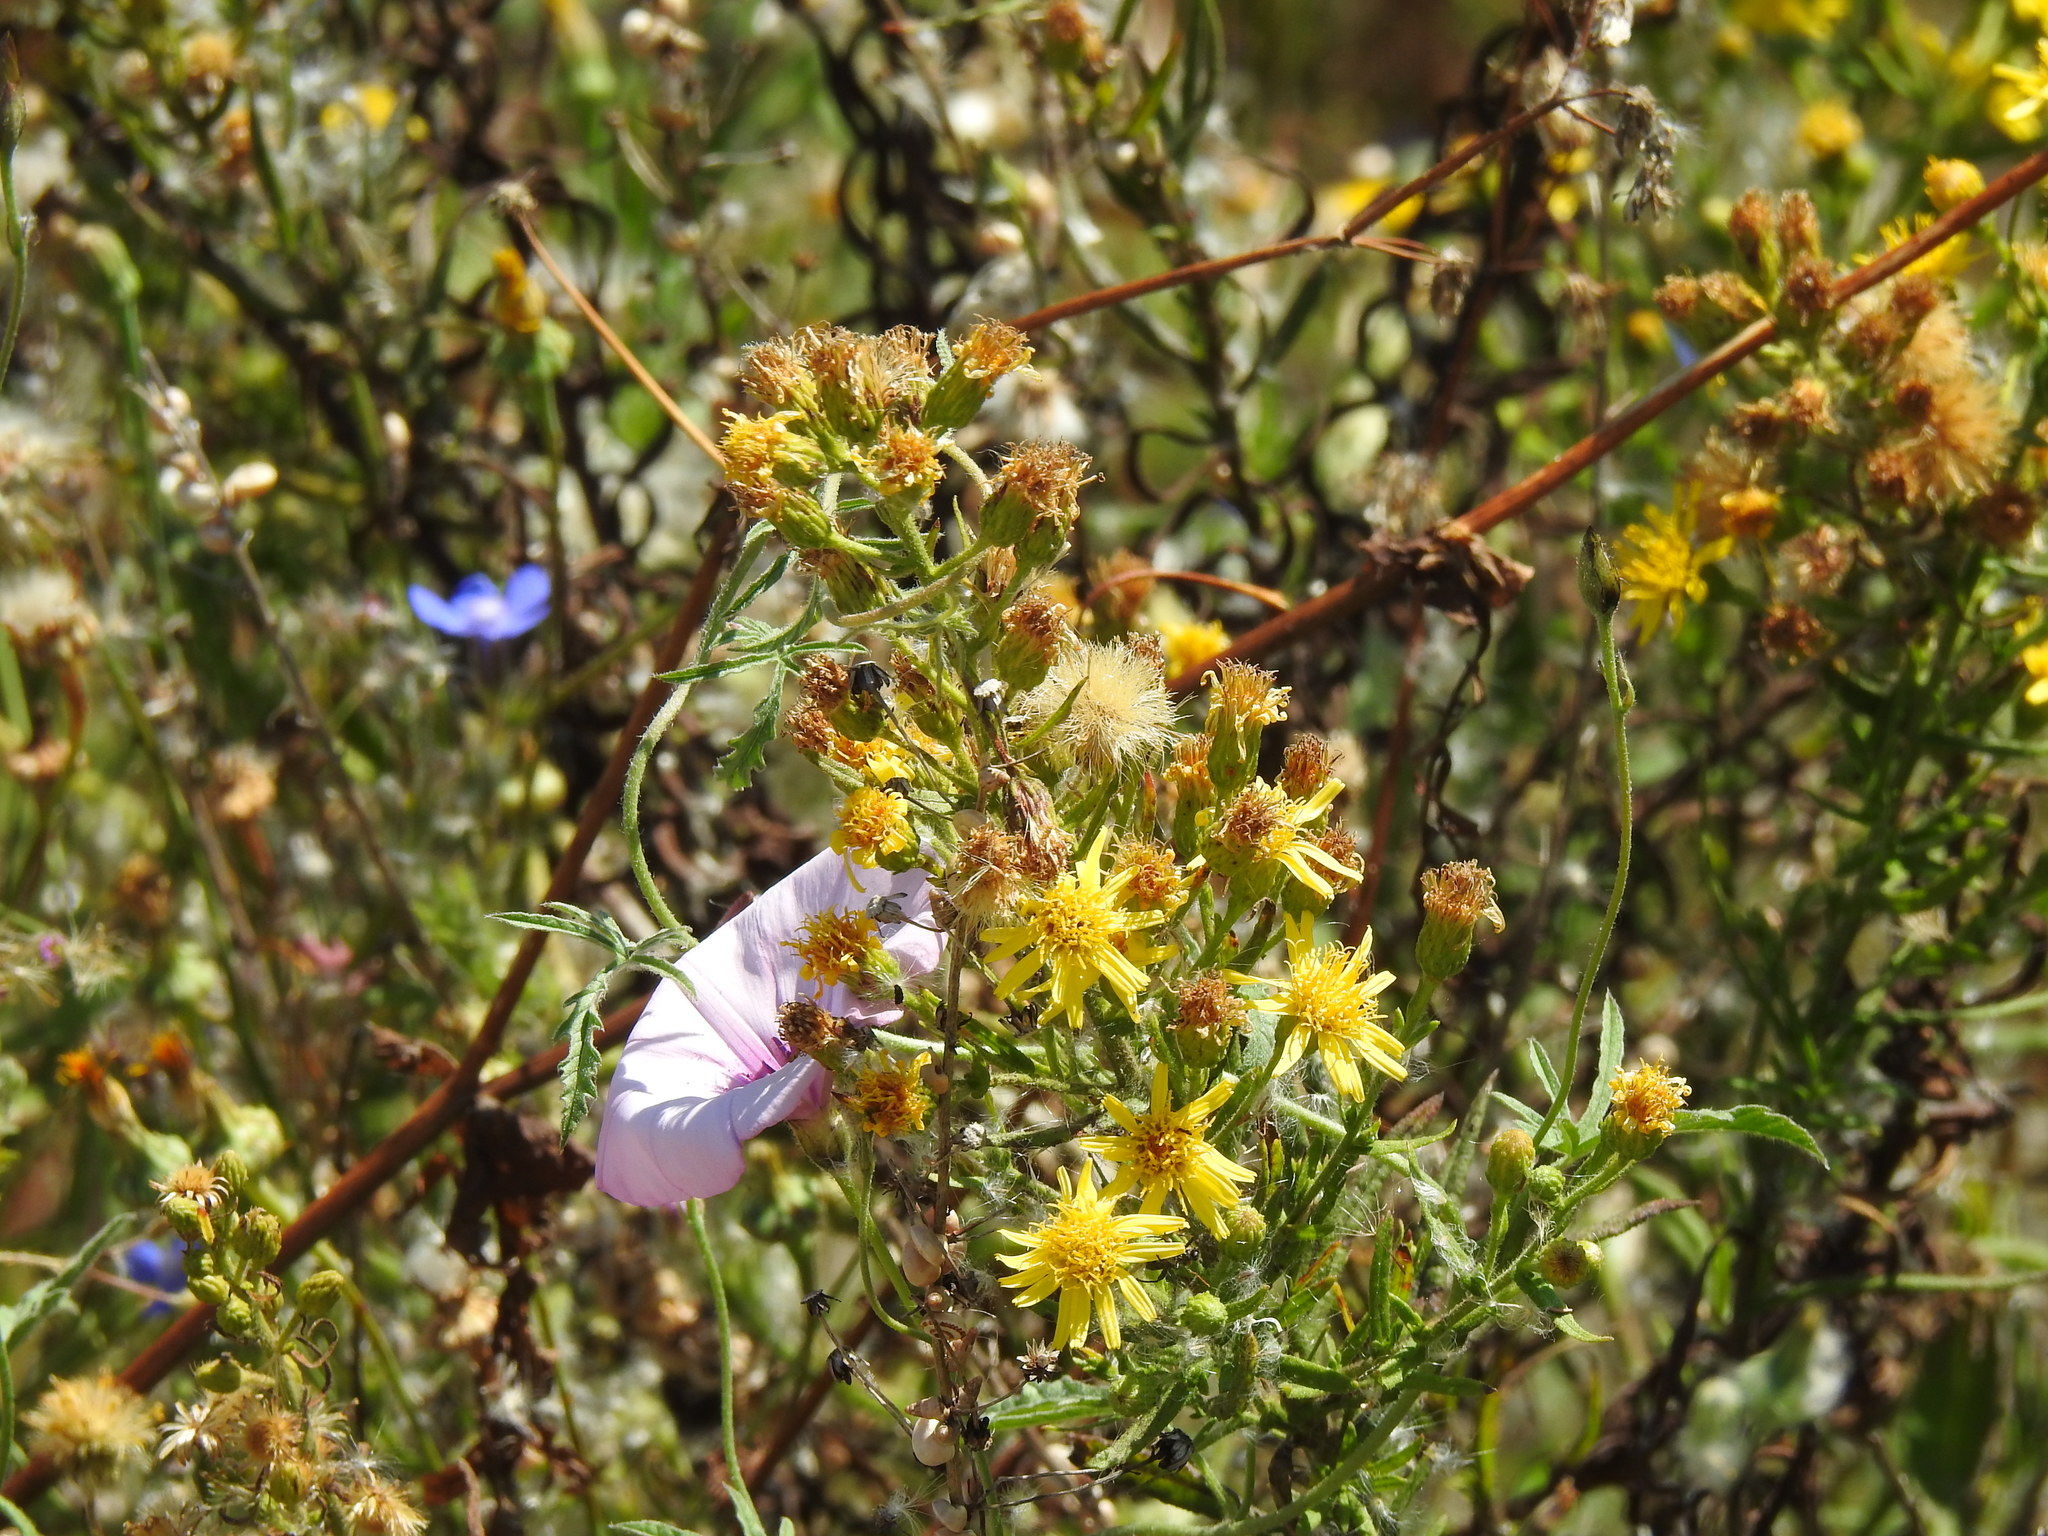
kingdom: Plantae
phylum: Tracheophyta
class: Magnoliopsida
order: Asterales
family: Asteraceae
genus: Dittrichia
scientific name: Dittrichia viscosa
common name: Woody fleabane
